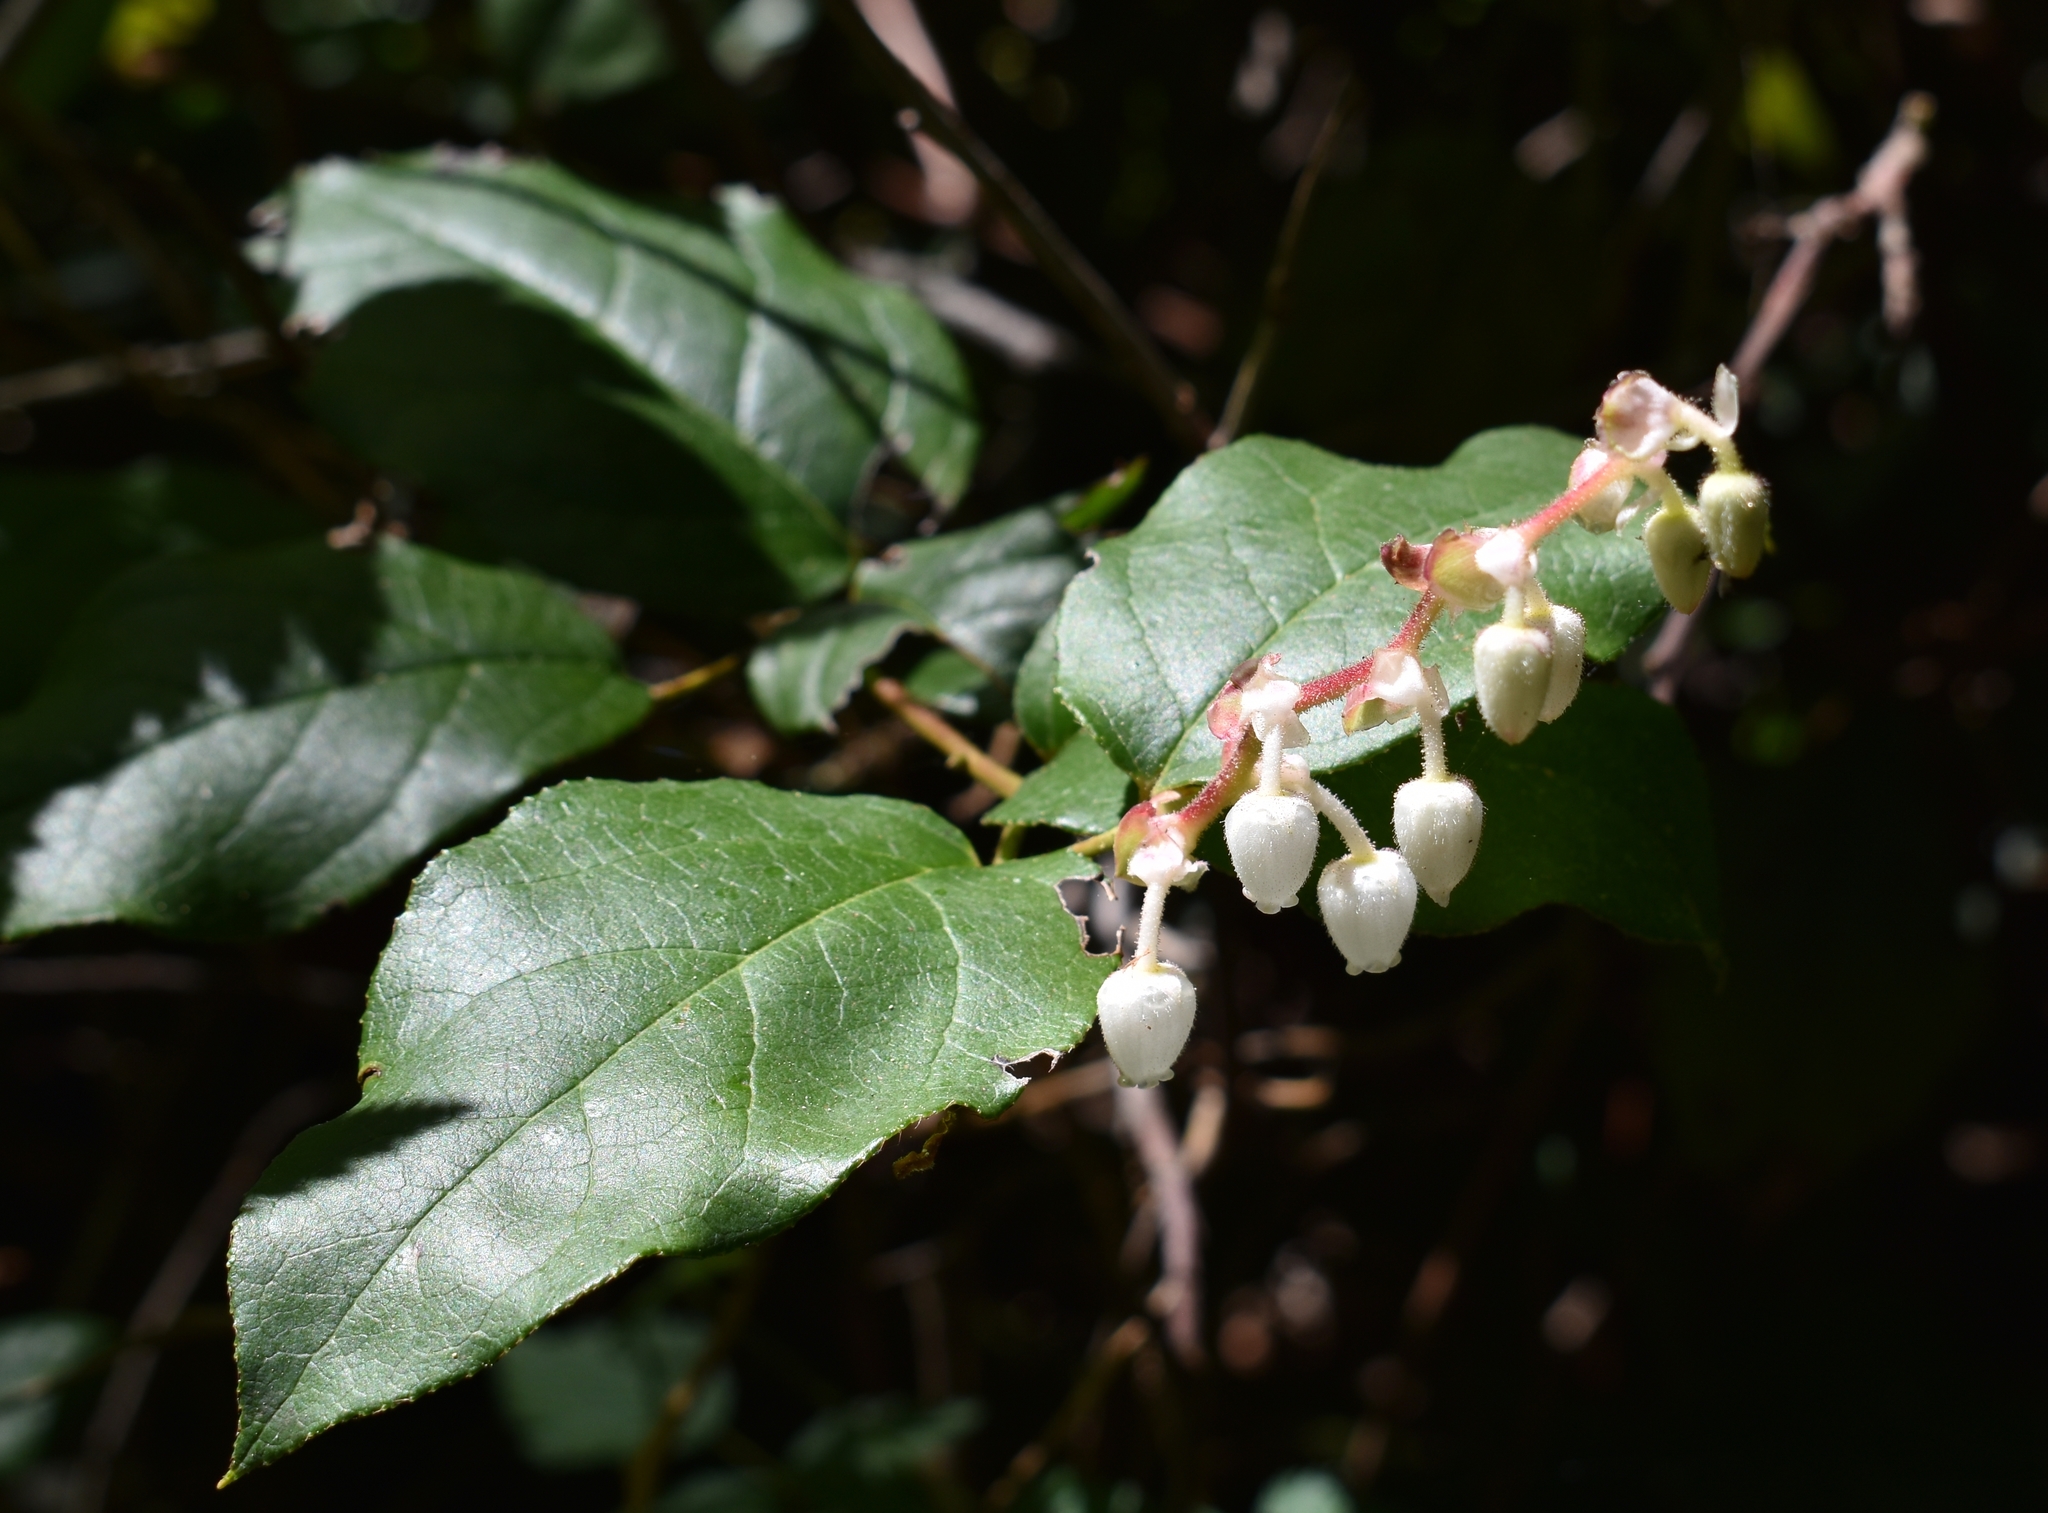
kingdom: Plantae
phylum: Tracheophyta
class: Magnoliopsida
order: Ericales
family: Ericaceae
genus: Gaultheria
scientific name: Gaultheria shallon
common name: Shallon
